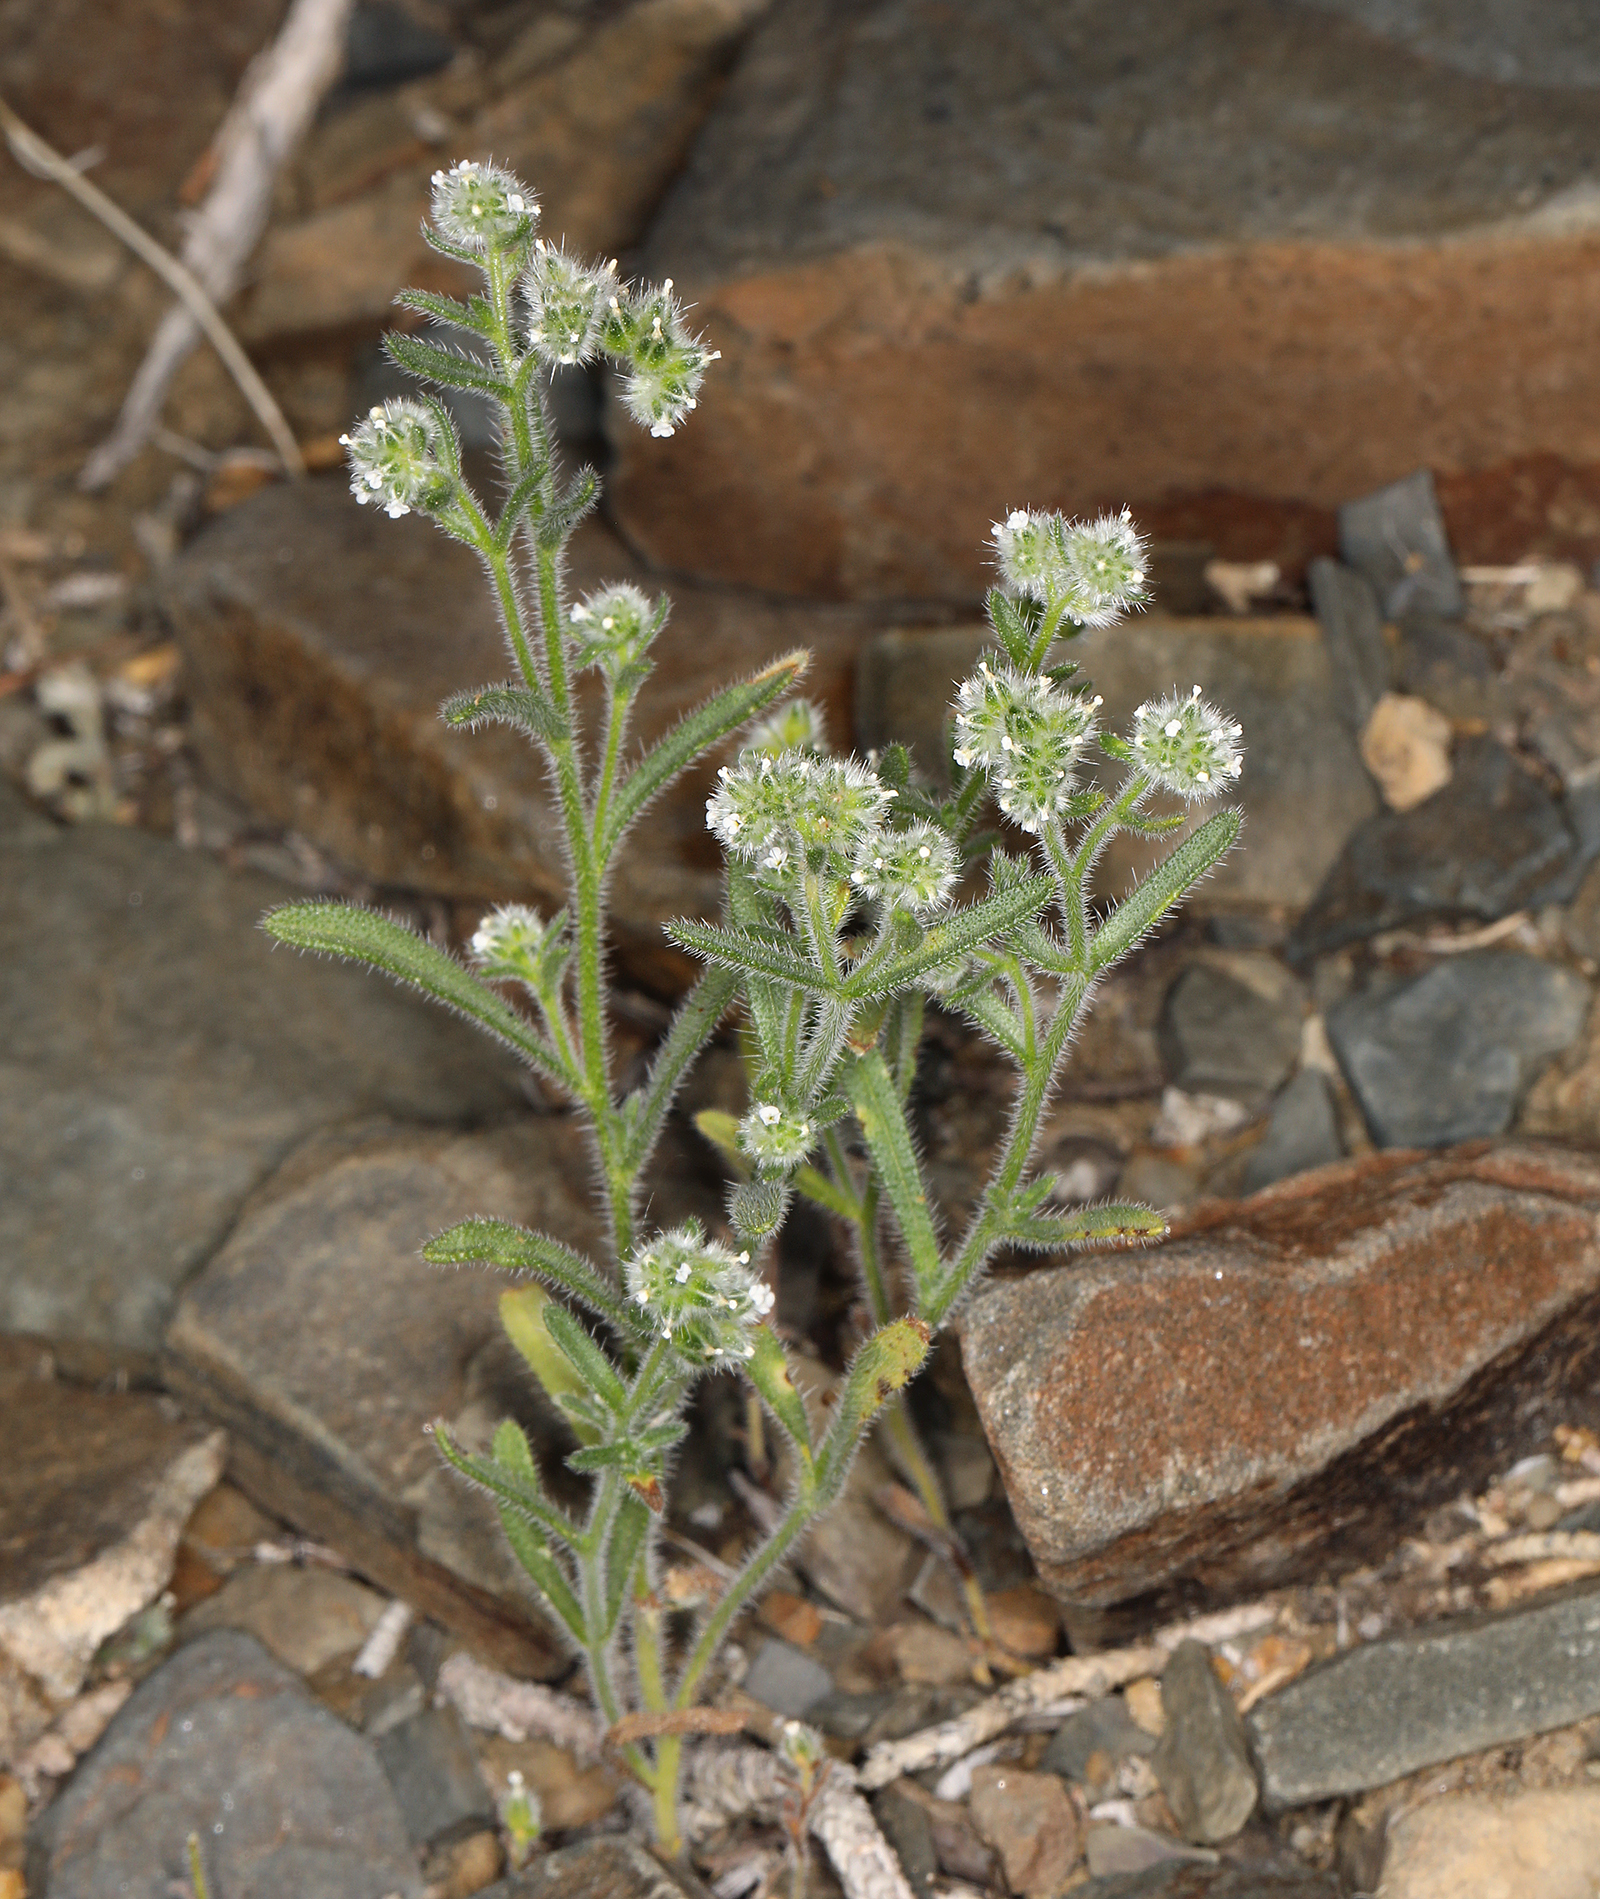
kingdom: Plantae
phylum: Tracheophyta
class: Magnoliopsida
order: Boraginales
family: Boraginaceae
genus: Cryptantha
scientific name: Cryptantha gracilis
